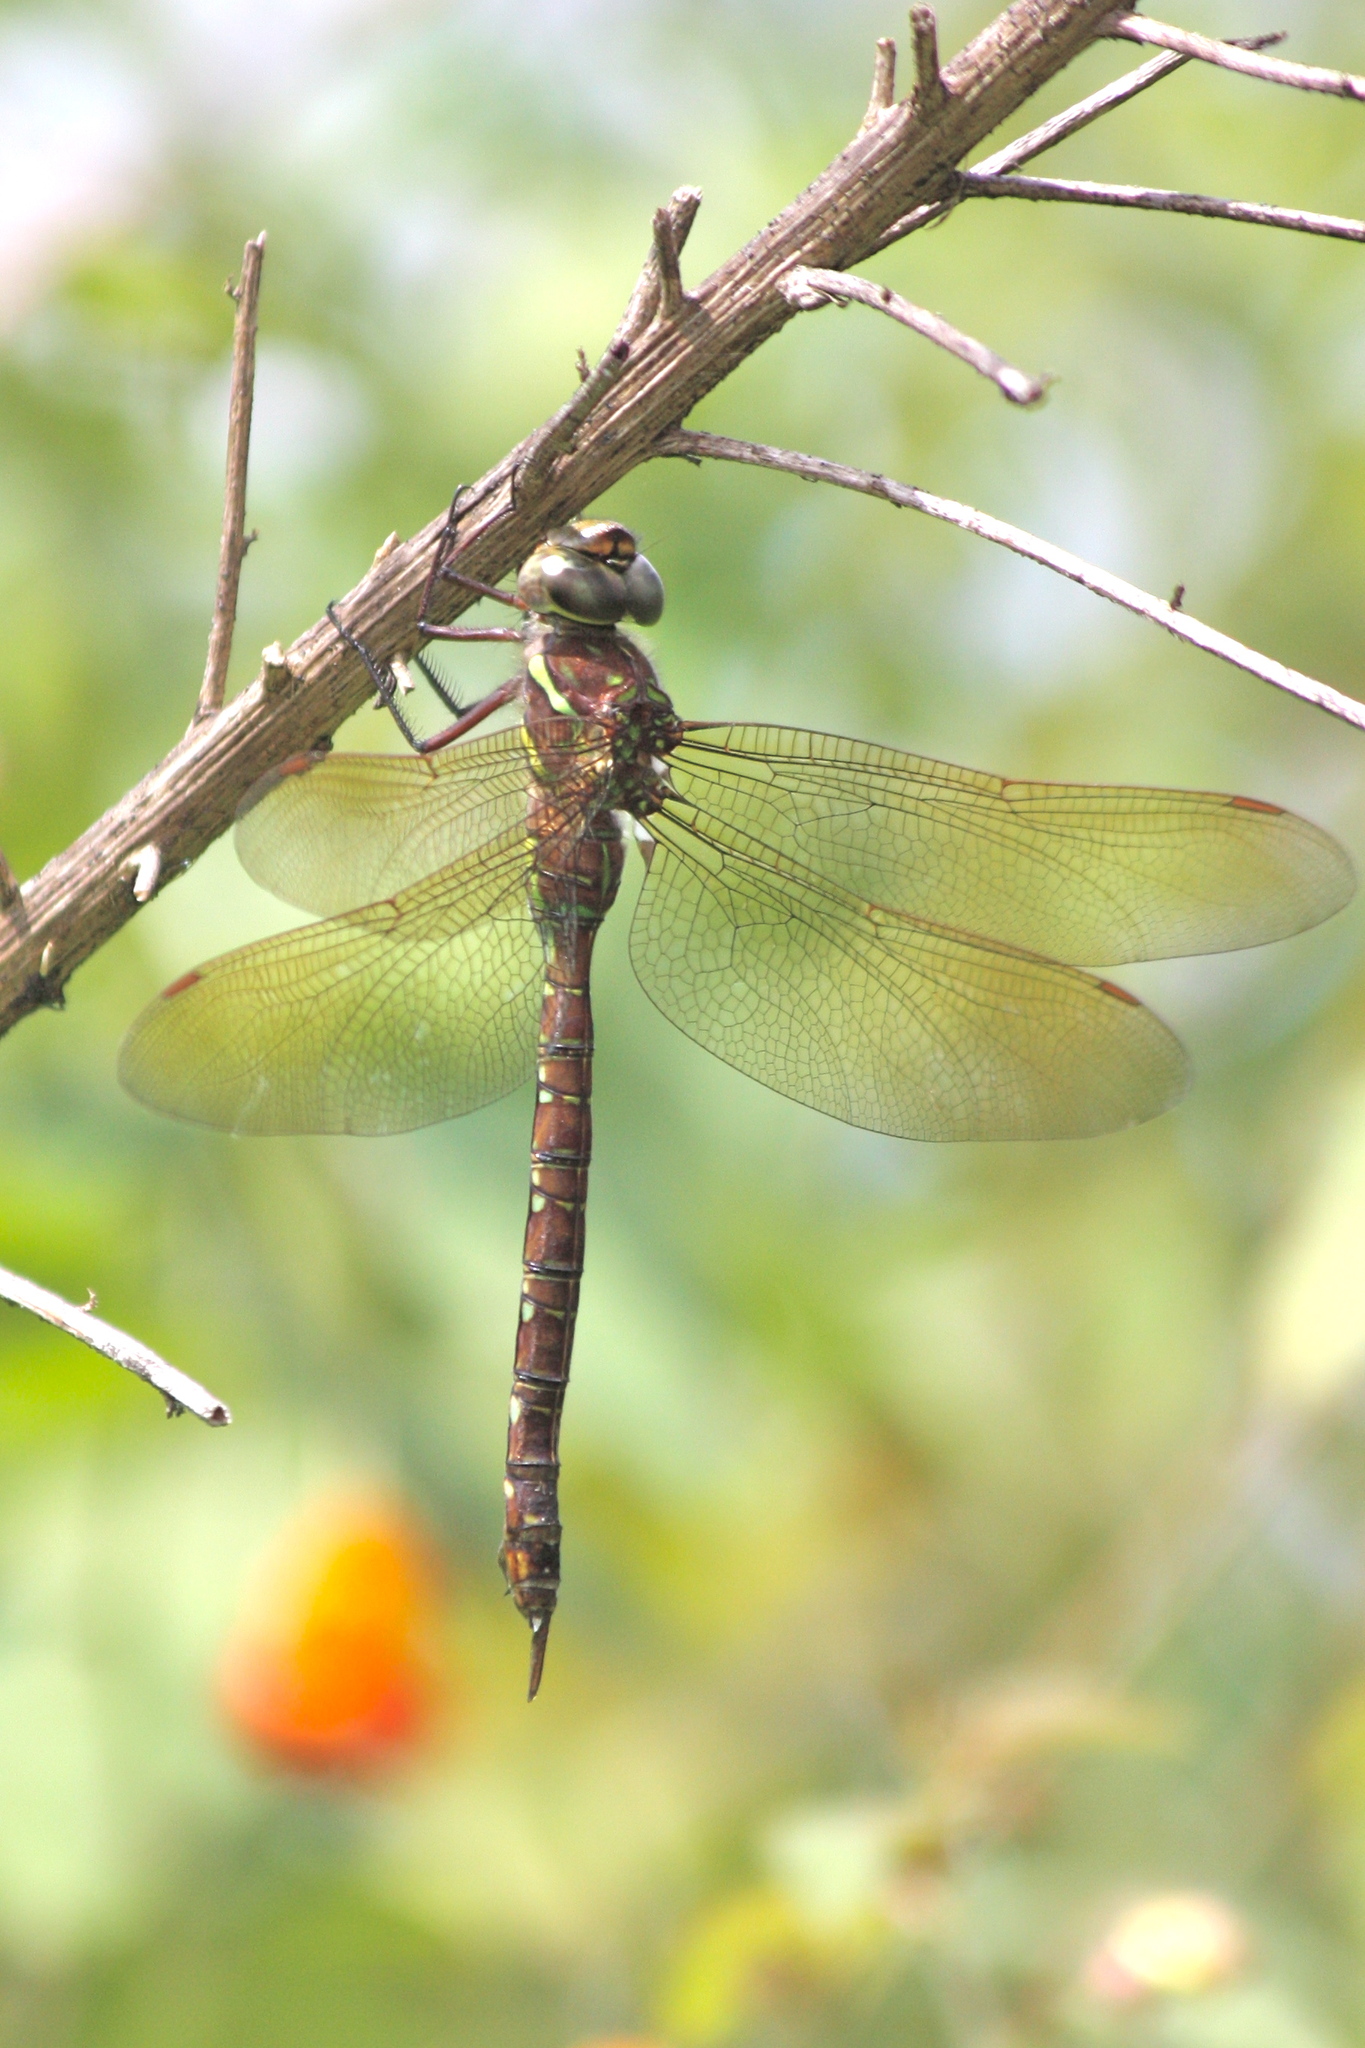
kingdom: Animalia
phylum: Arthropoda
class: Insecta
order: Odonata
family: Aeshnidae
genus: Aeshna
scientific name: Aeshna umbrosa
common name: Shadow darner
